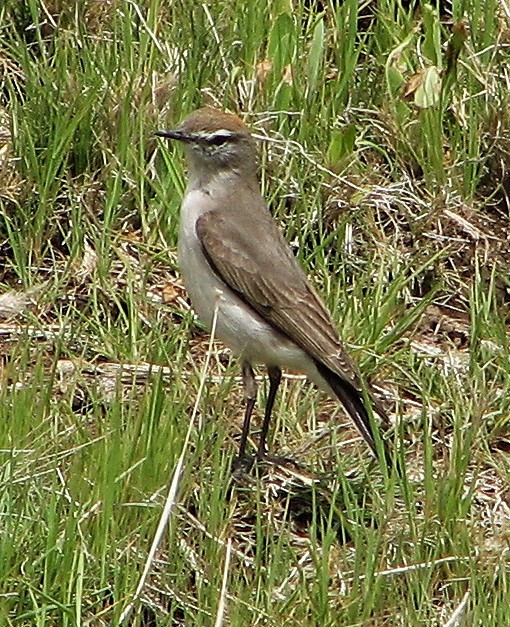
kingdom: Animalia
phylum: Chordata
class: Aves
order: Passeriformes
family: Tyrannidae
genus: Muscisaxicola
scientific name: Muscisaxicola albilora
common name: White-browed ground tyrant
